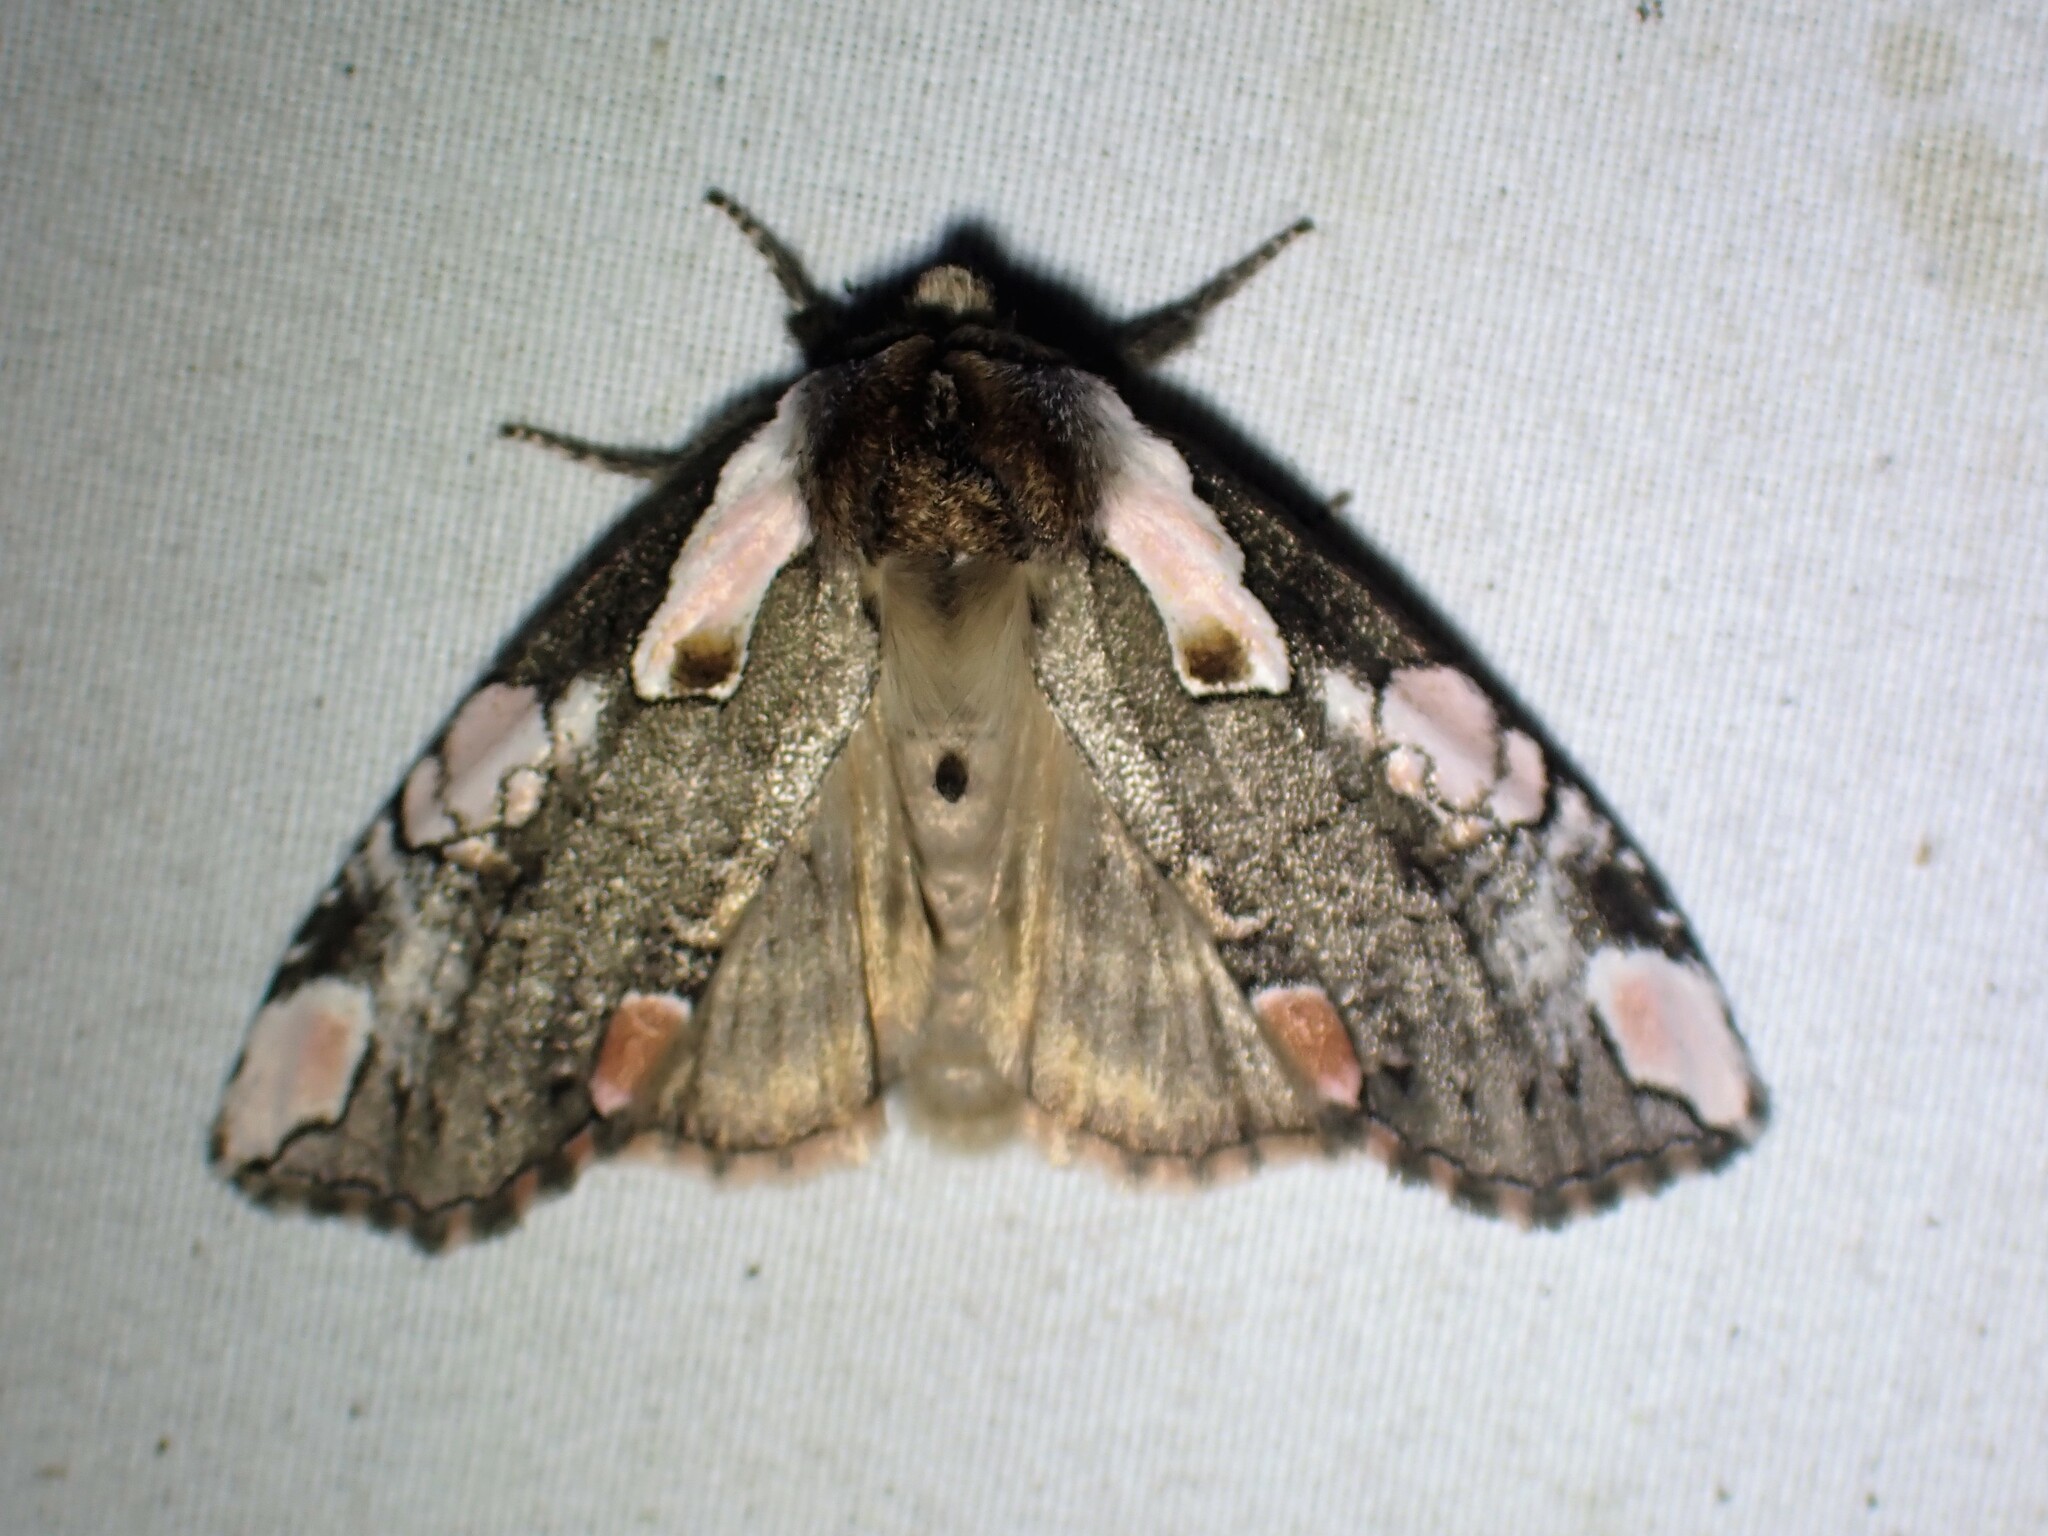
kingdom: Animalia
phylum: Arthropoda
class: Insecta
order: Lepidoptera
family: Drepanidae
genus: Euthyatira
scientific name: Euthyatira pudens
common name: Dogwood thyatirid moth
